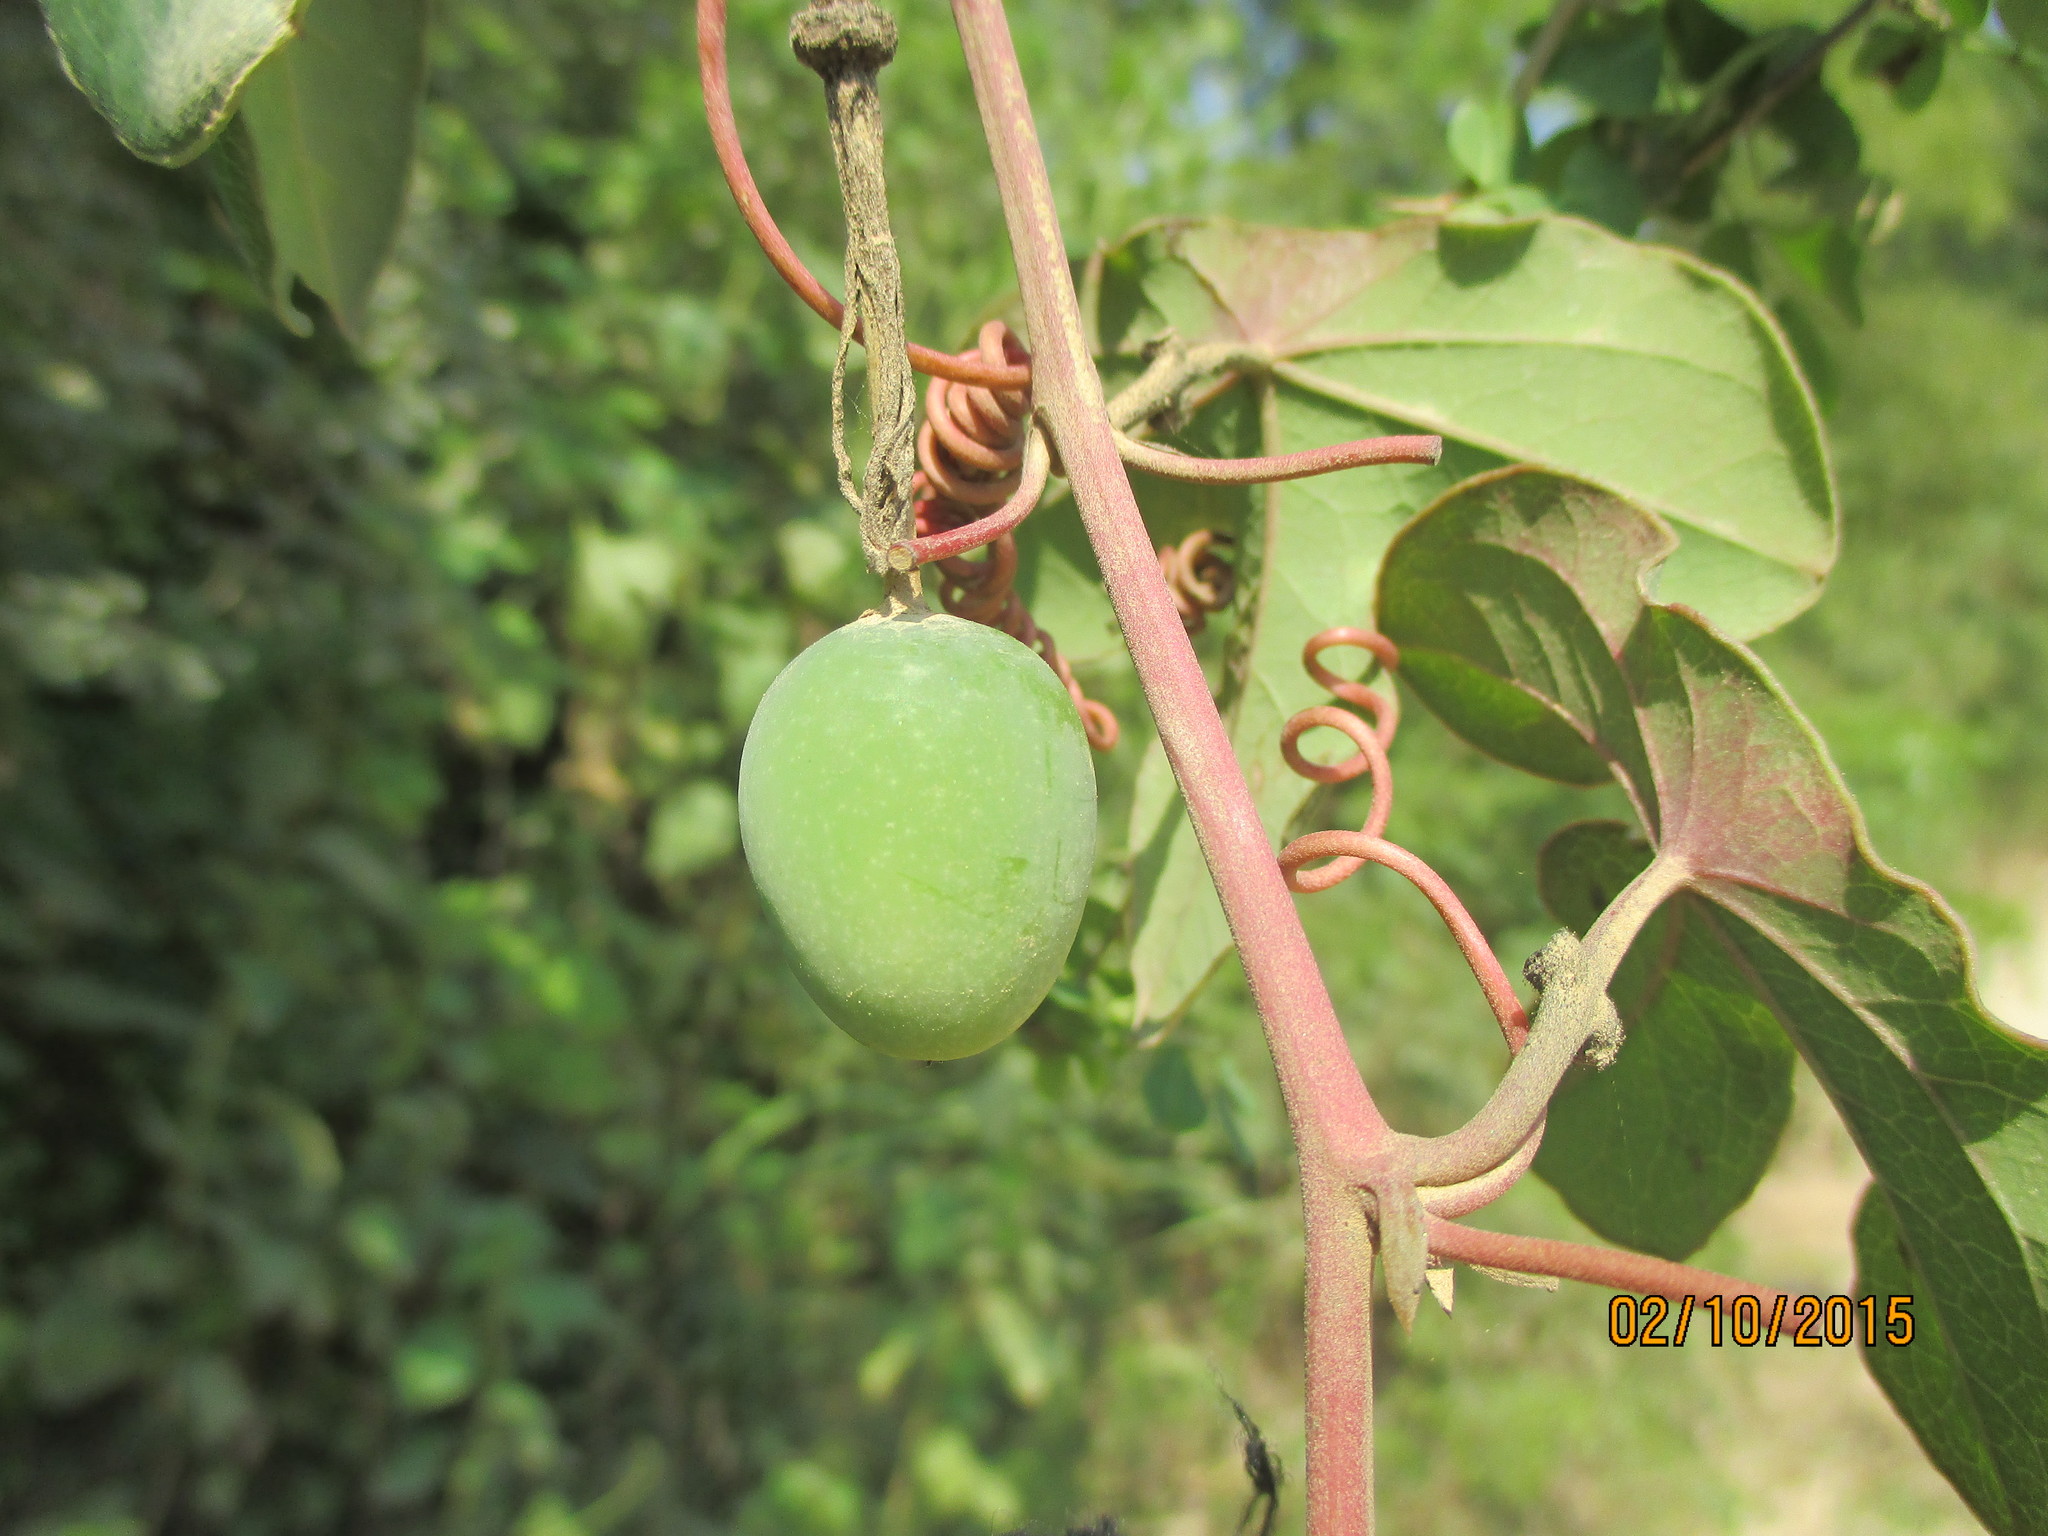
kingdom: Plantae
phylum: Tracheophyta
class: Magnoliopsida
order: Malpighiales
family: Passifloraceae
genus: Passiflora
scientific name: Passiflora viridiflora
